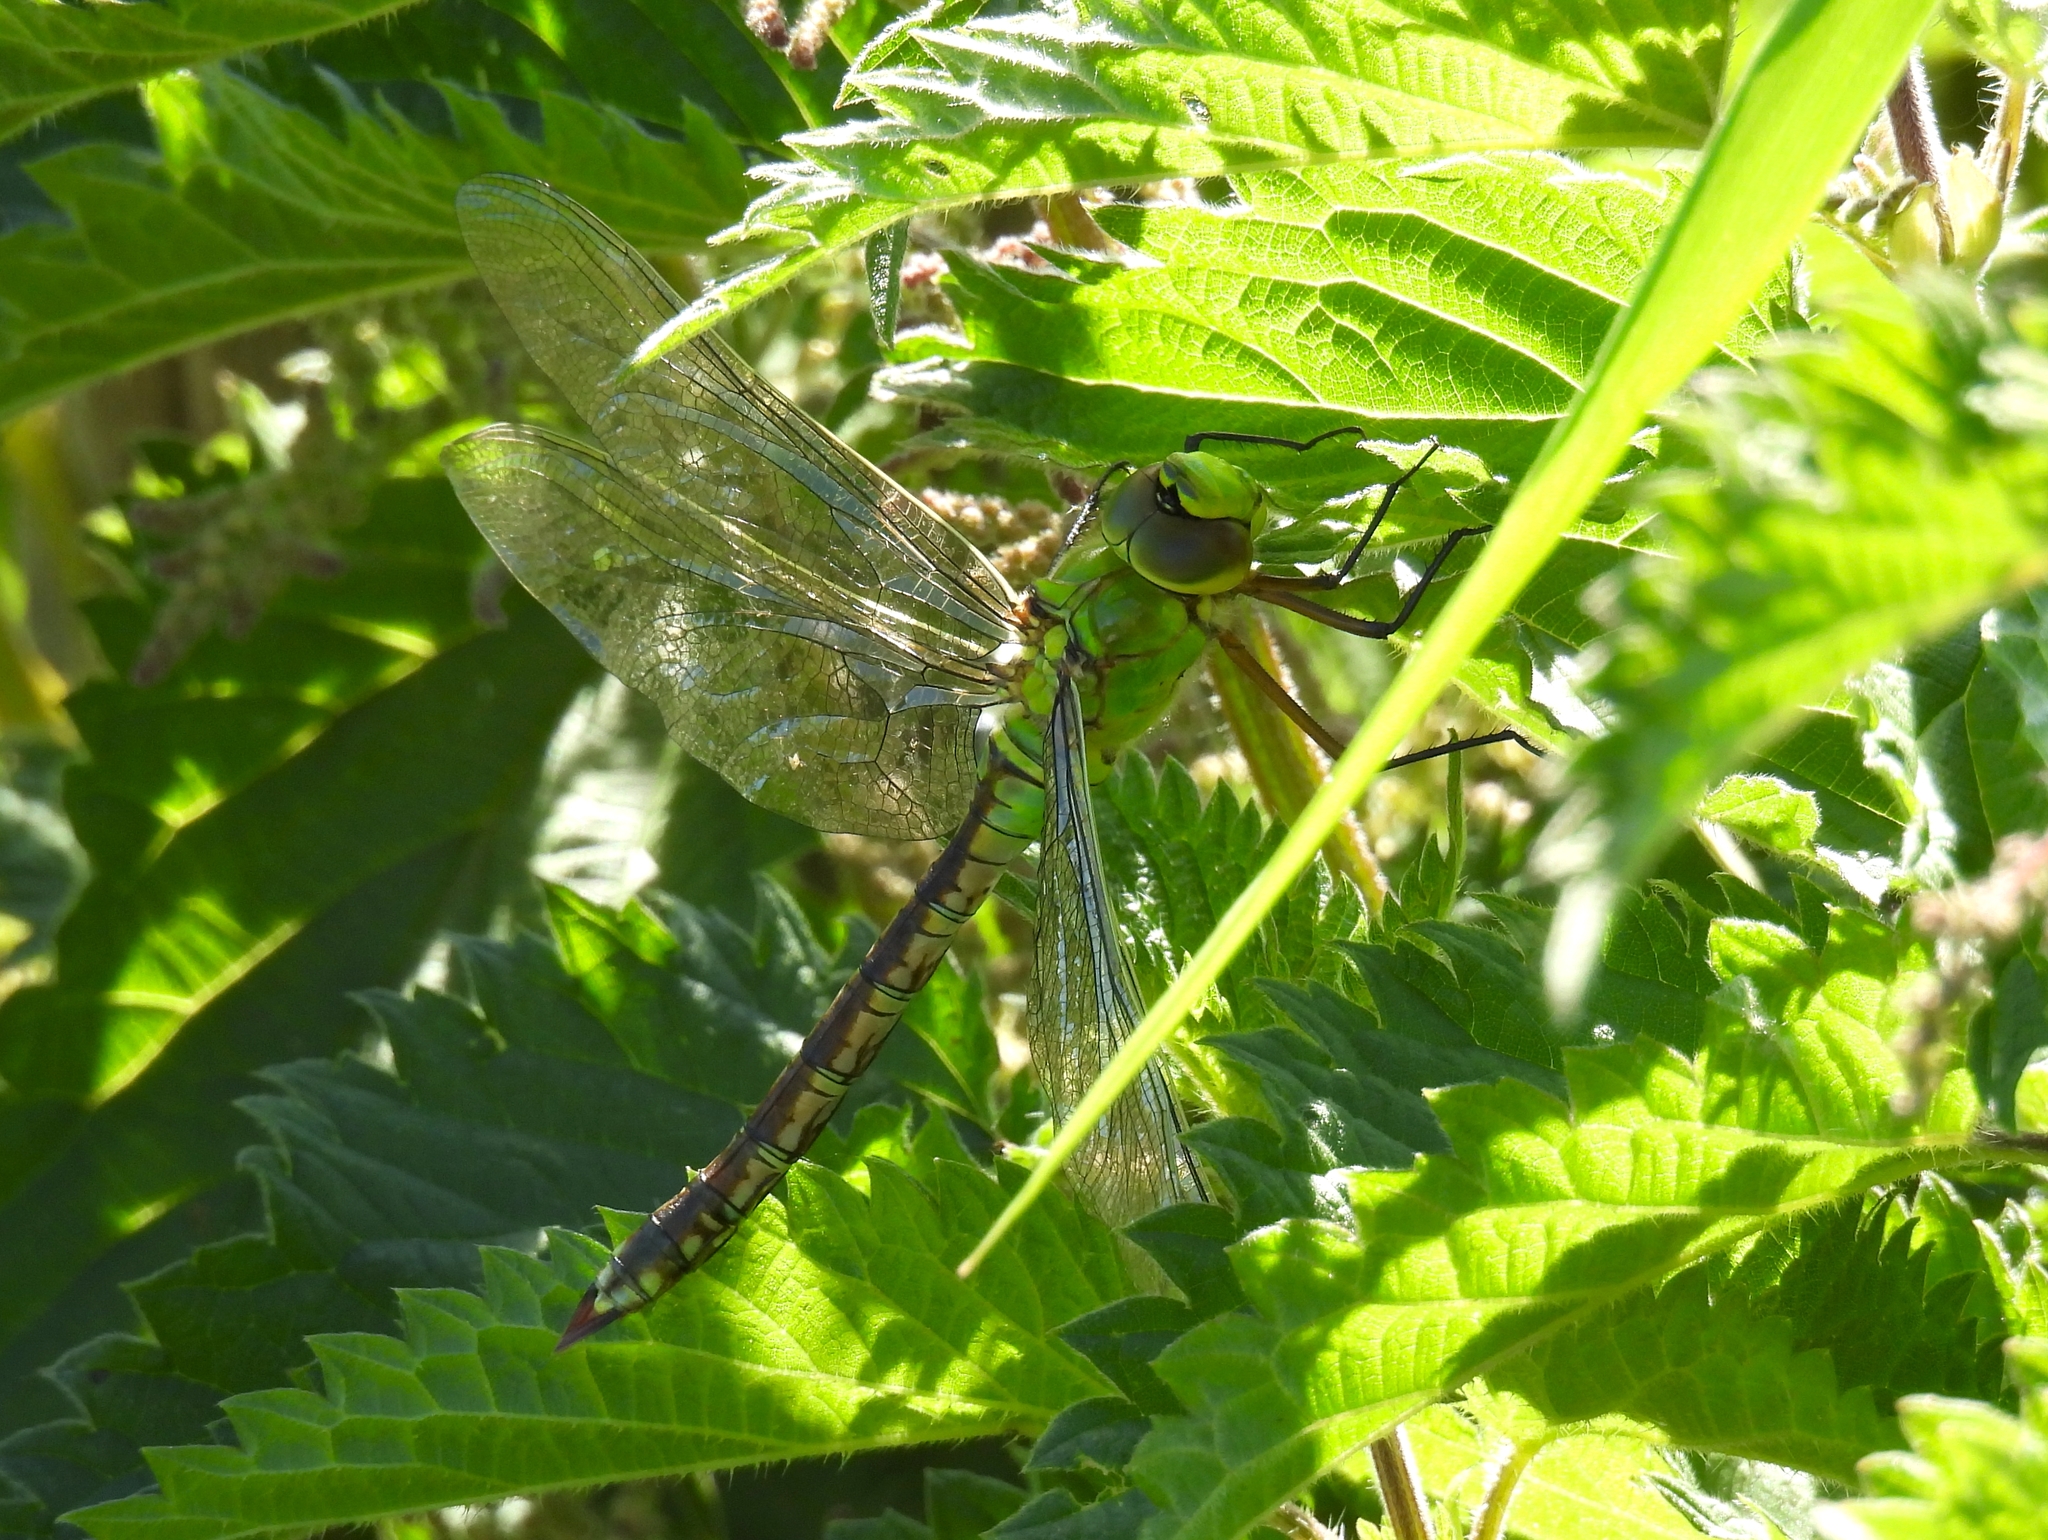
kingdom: Animalia
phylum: Arthropoda
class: Insecta
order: Odonata
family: Aeshnidae
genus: Anax
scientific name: Anax imperator
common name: Emperor dragonfly
